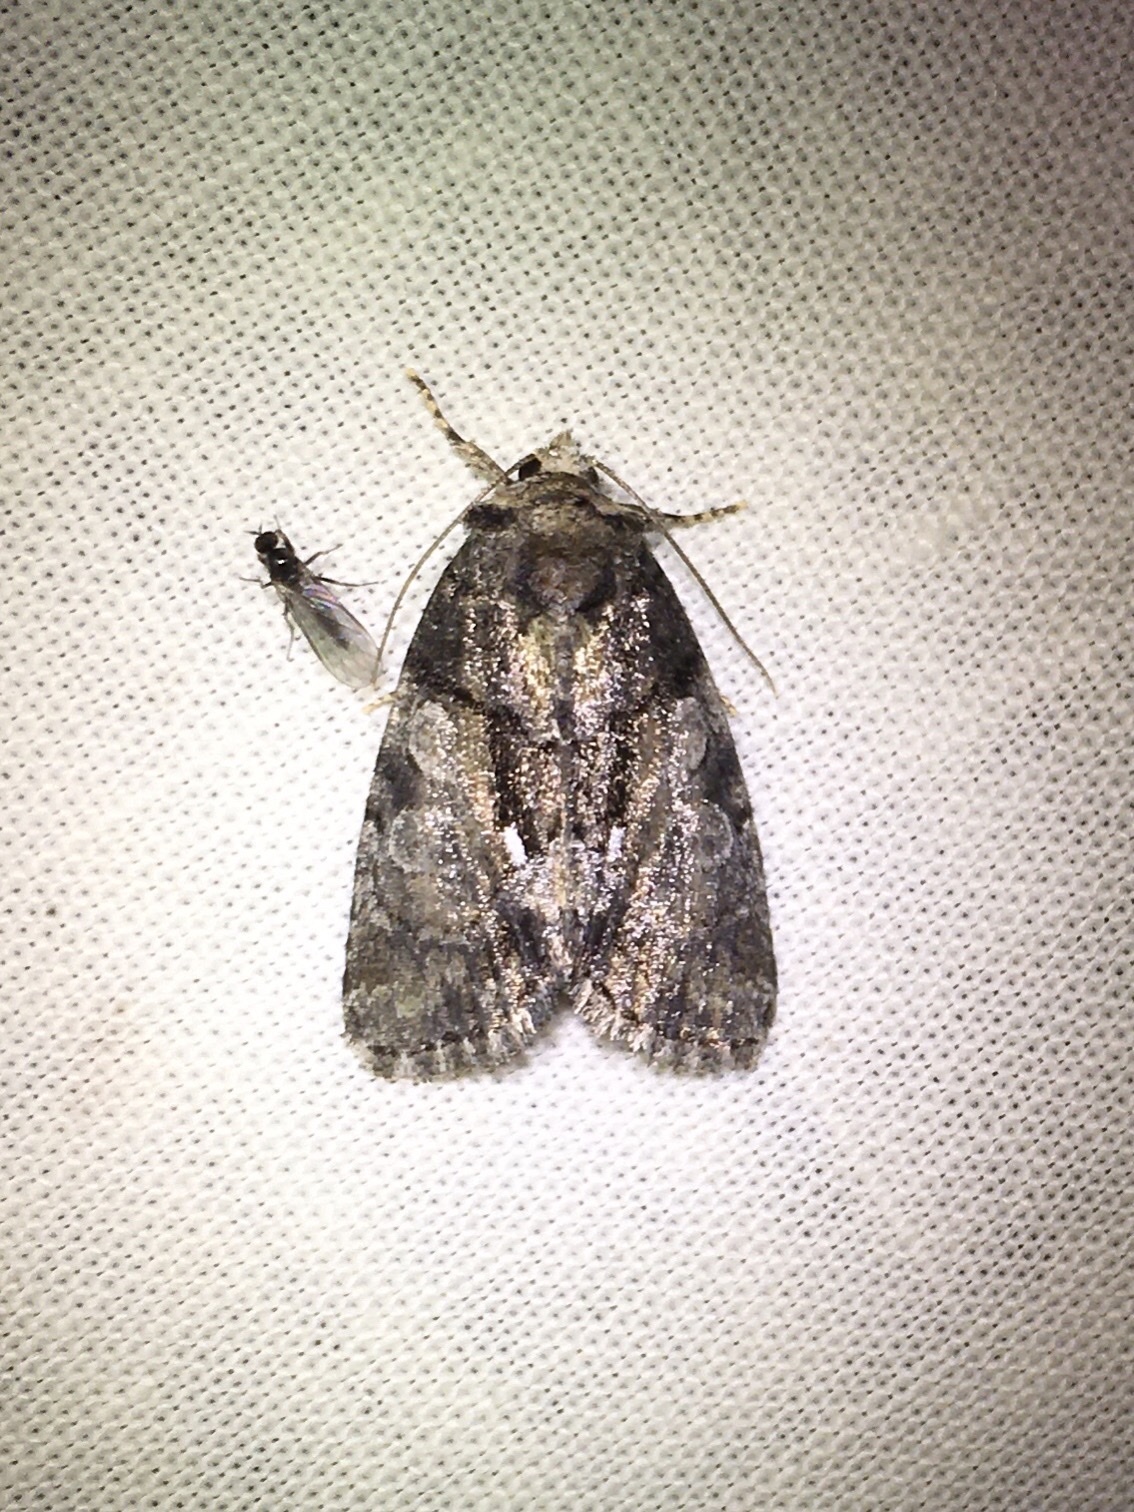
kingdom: Animalia
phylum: Arthropoda
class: Insecta
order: Lepidoptera
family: Noctuidae
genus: Chytonix
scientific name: Chytonix palliatricula
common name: Cloaked marvel
